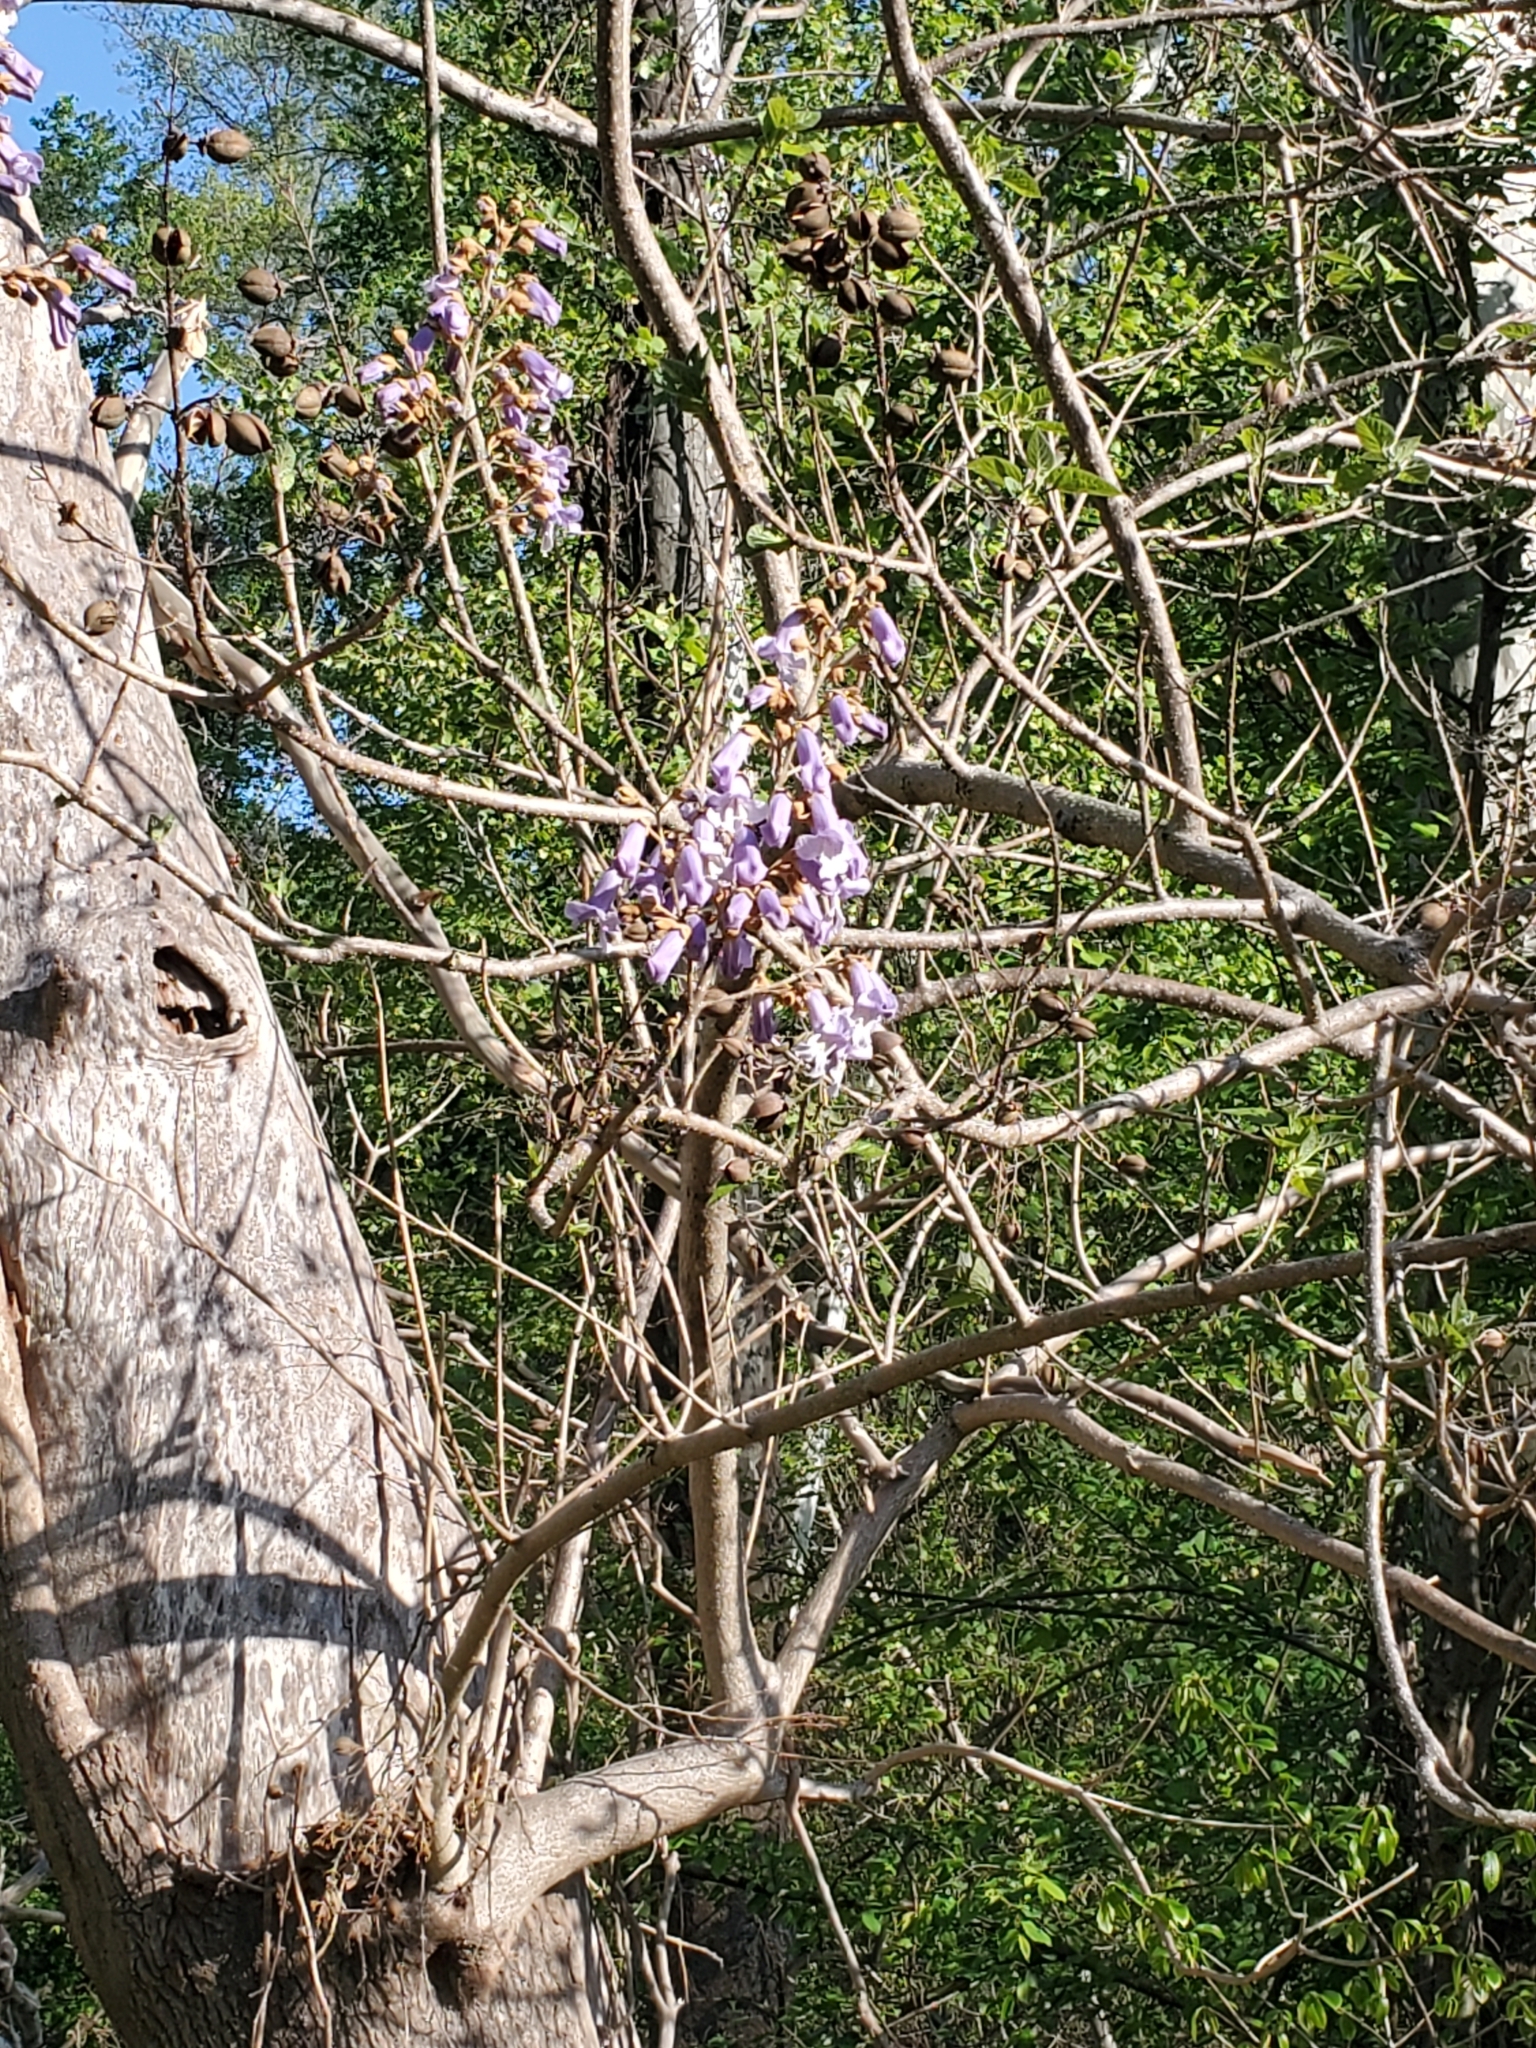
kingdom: Plantae
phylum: Tracheophyta
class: Magnoliopsida
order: Lamiales
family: Paulowniaceae
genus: Paulownia
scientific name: Paulownia tomentosa
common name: Foxglove-tree
